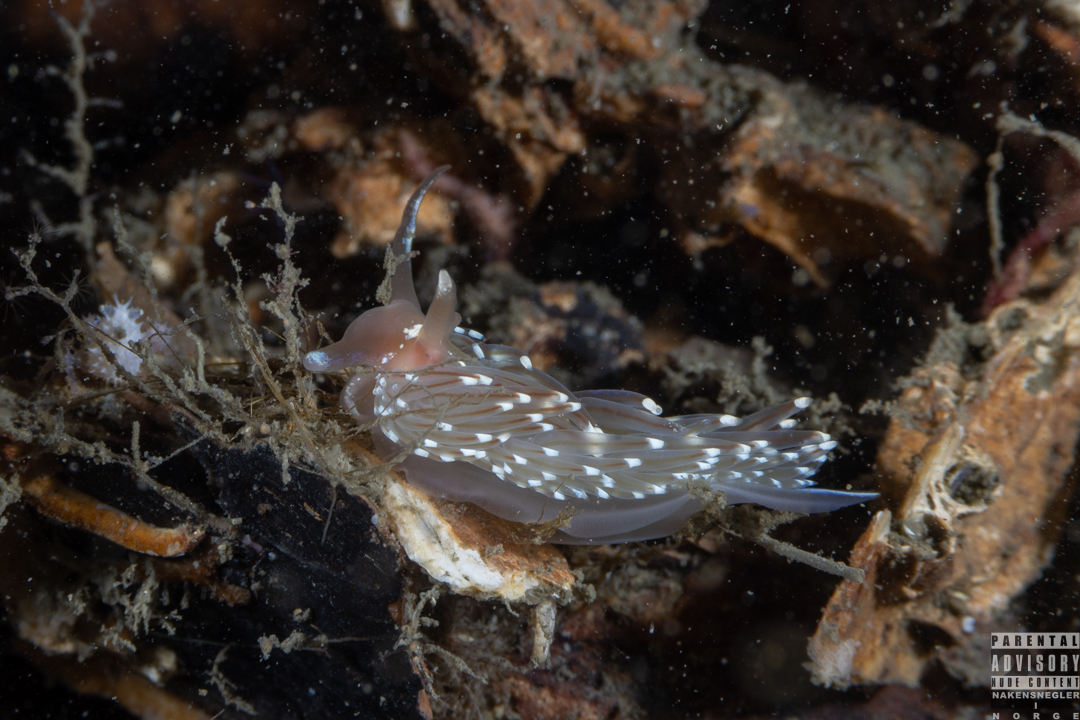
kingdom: Animalia
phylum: Mollusca
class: Gastropoda
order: Nudibranchia
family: Facelinidae
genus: Facelina
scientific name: Facelina bostoniensis
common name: Boston facelina
